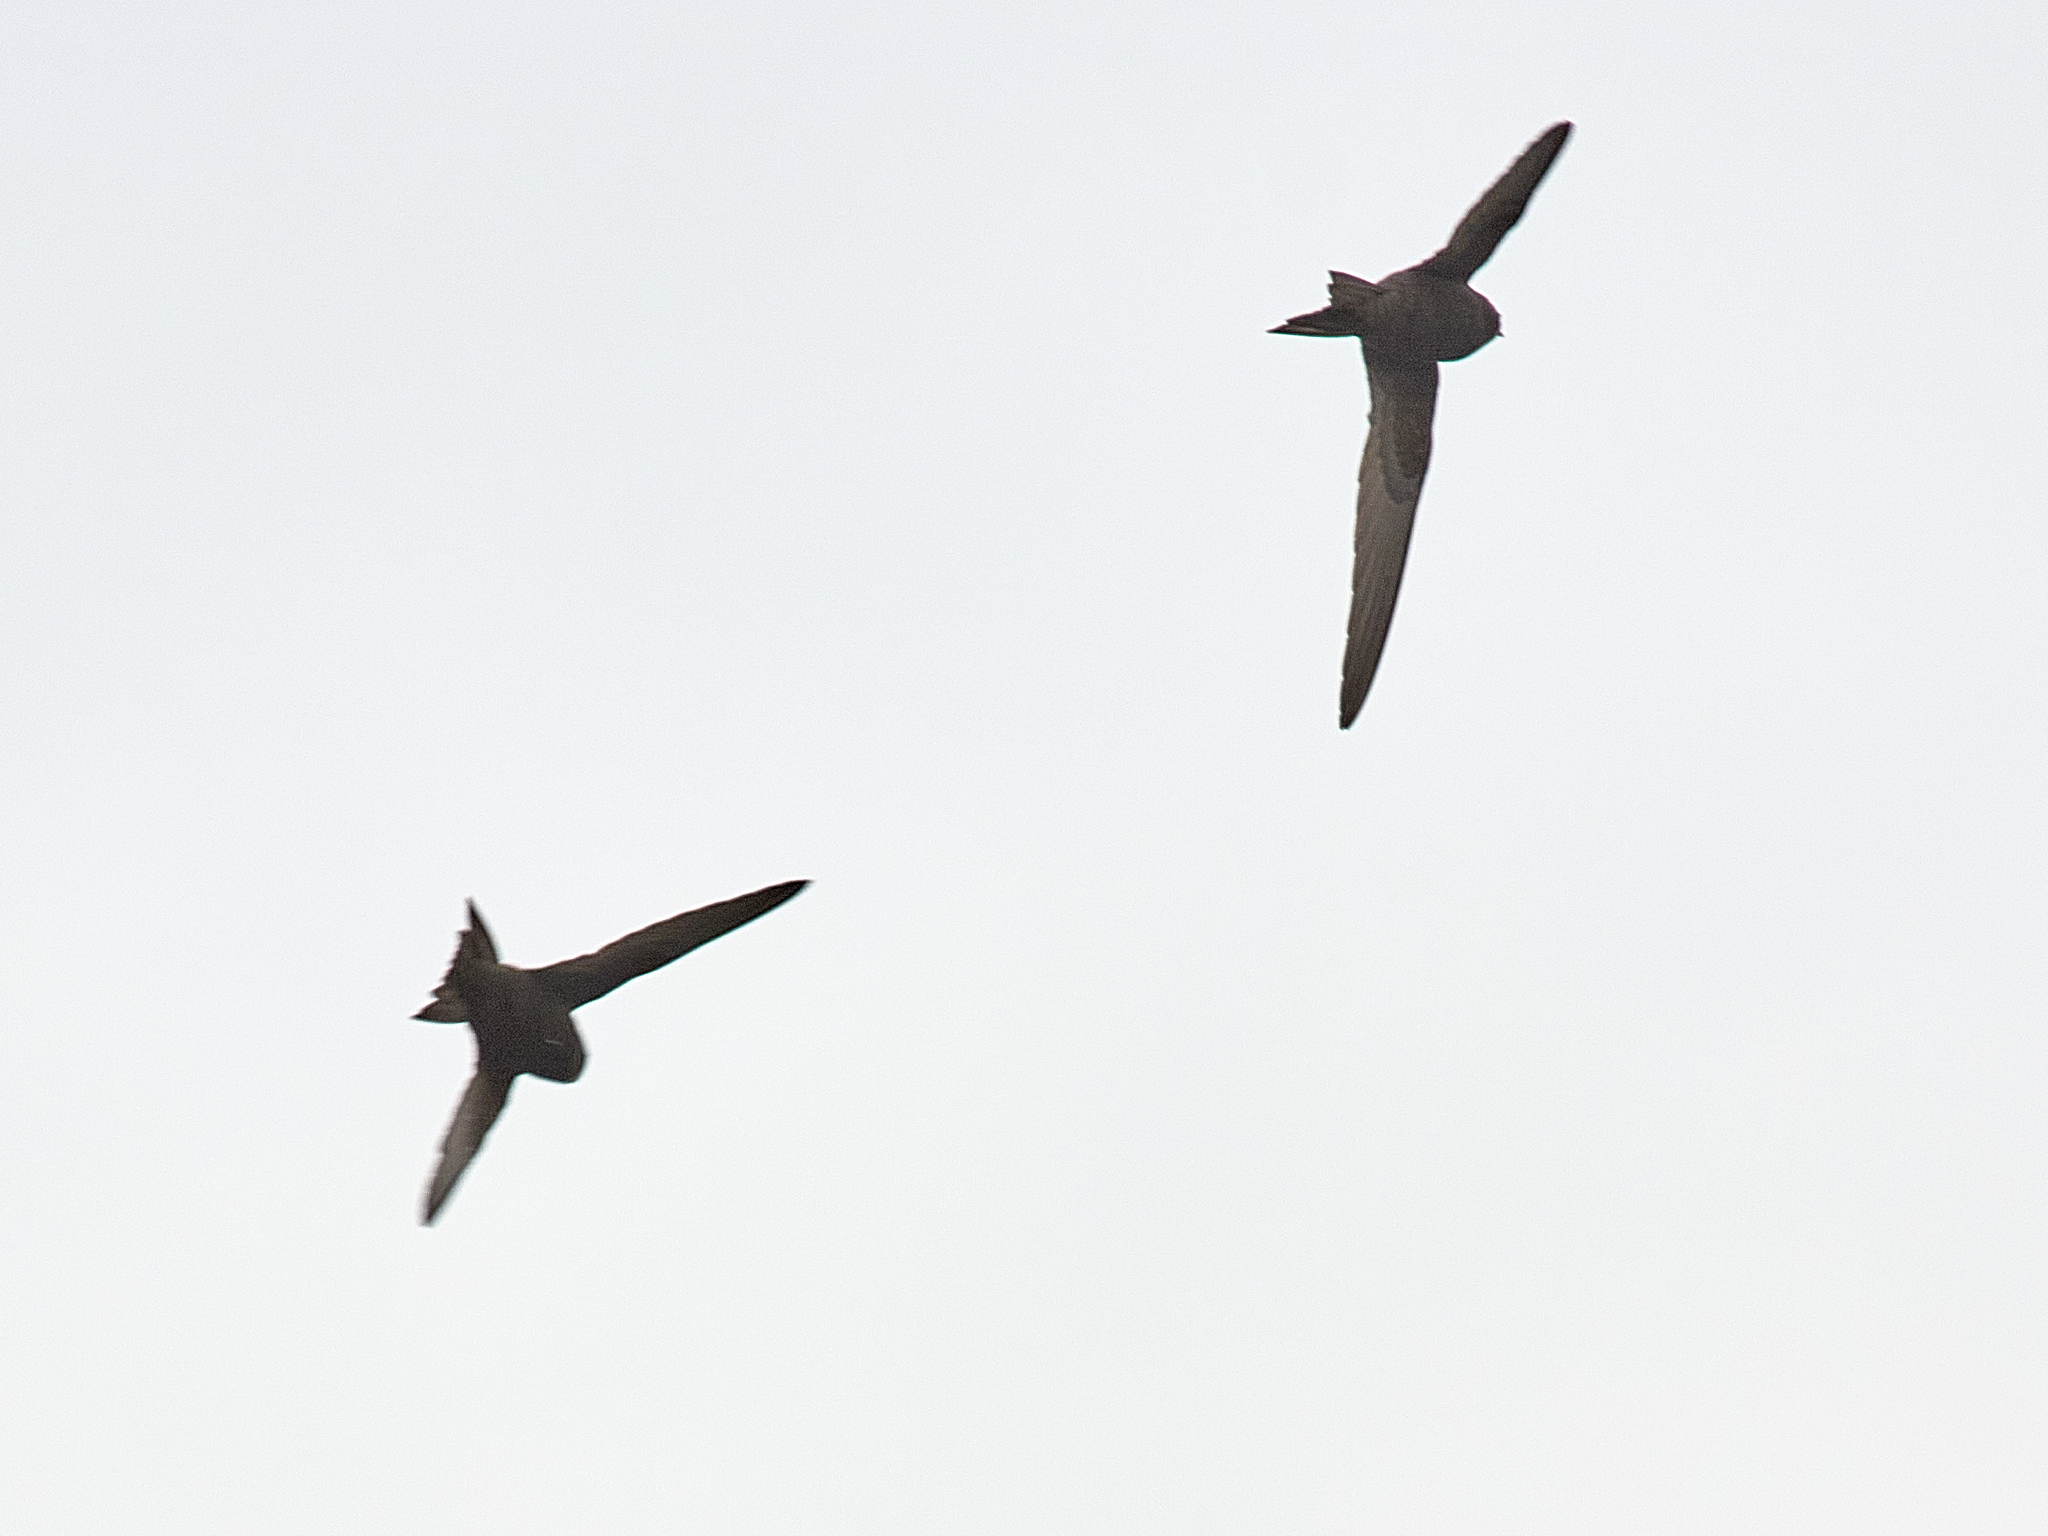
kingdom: Animalia
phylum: Chordata
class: Aves
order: Apodiformes
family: Apodidae
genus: Apus
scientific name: Apus apus
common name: Common swift
